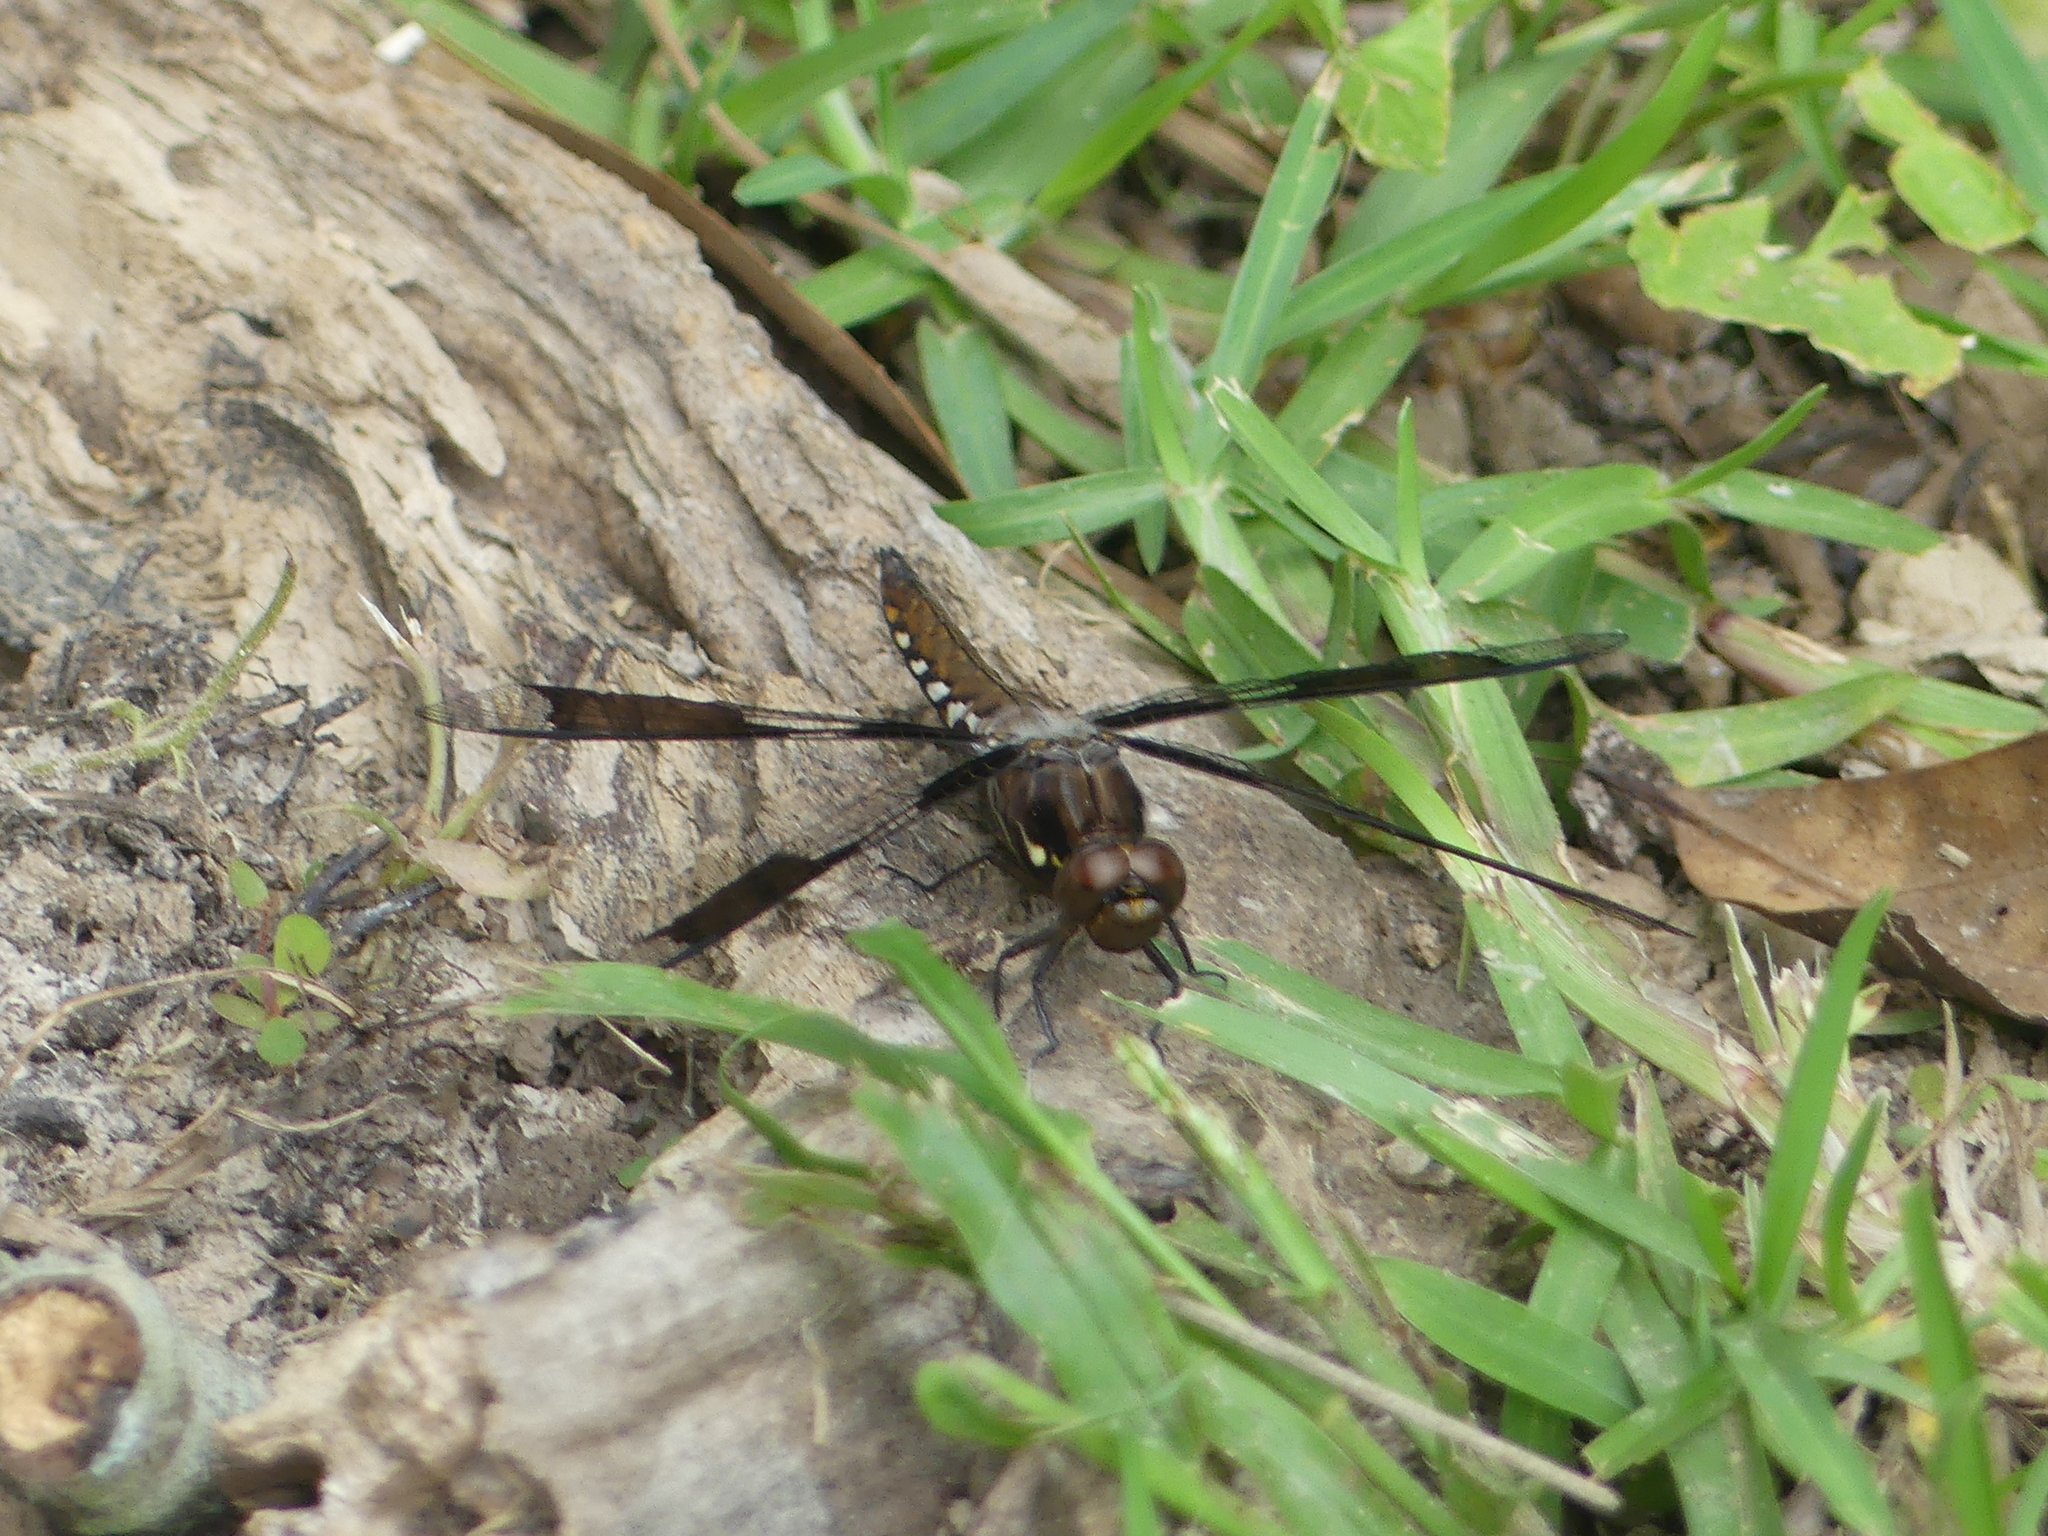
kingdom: Animalia
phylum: Arthropoda
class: Insecta
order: Odonata
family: Libellulidae
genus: Plathemis
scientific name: Plathemis lydia
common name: Common whitetail
